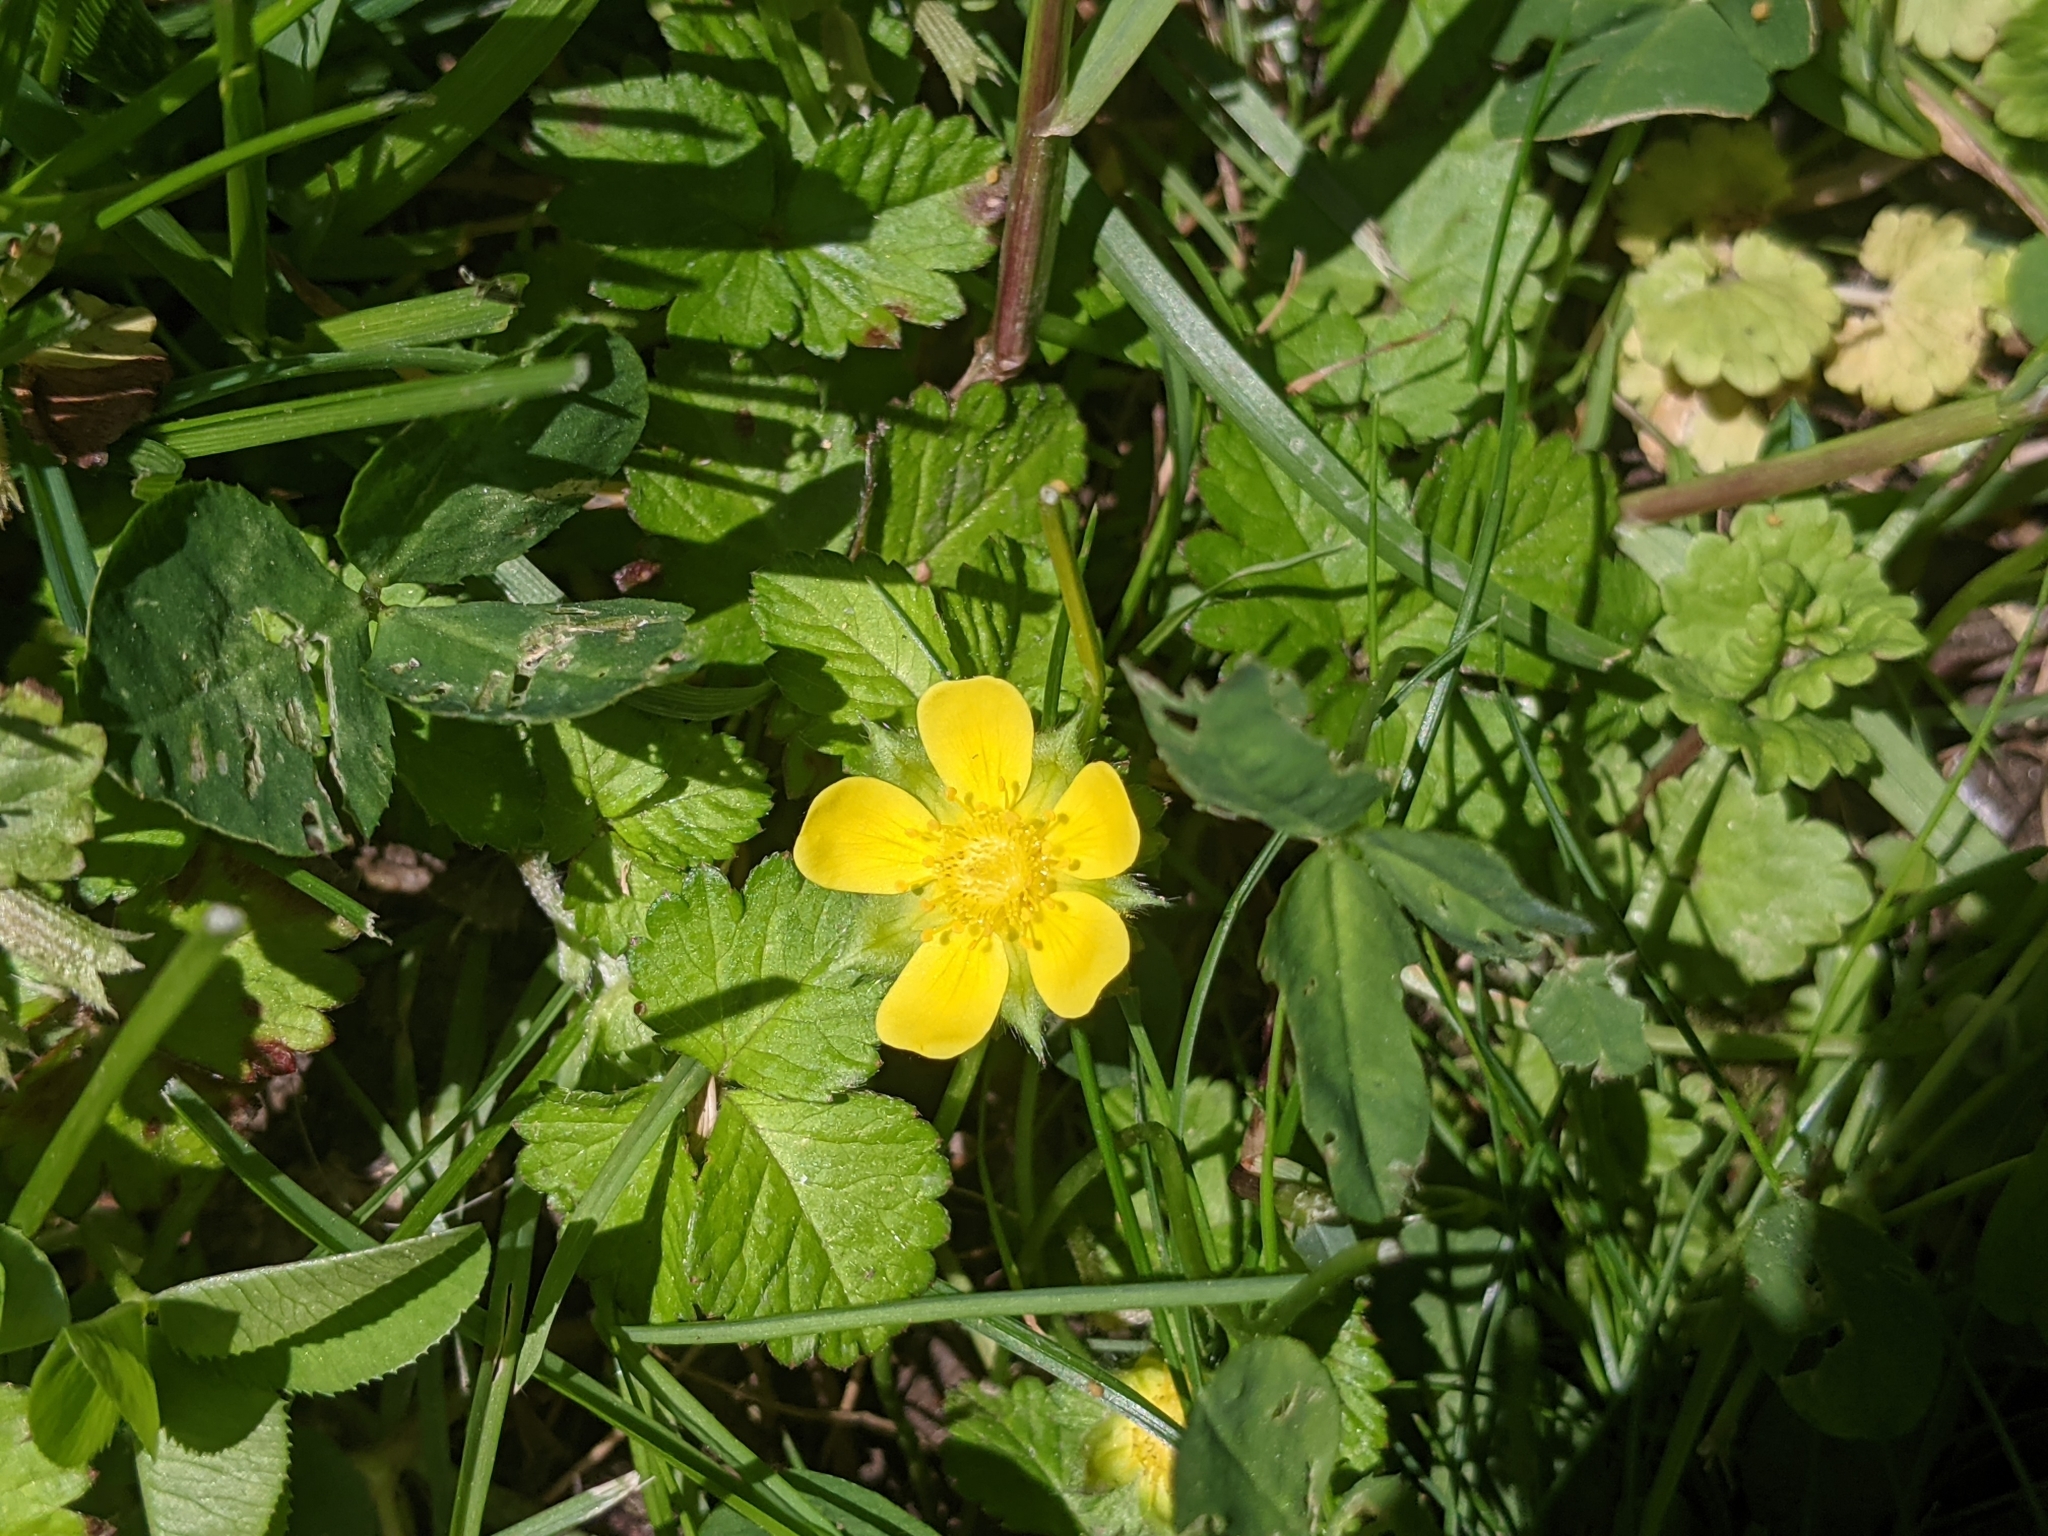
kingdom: Plantae
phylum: Tracheophyta
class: Magnoliopsida
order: Rosales
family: Rosaceae
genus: Potentilla
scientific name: Potentilla indica
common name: Yellow-flowered strawberry
